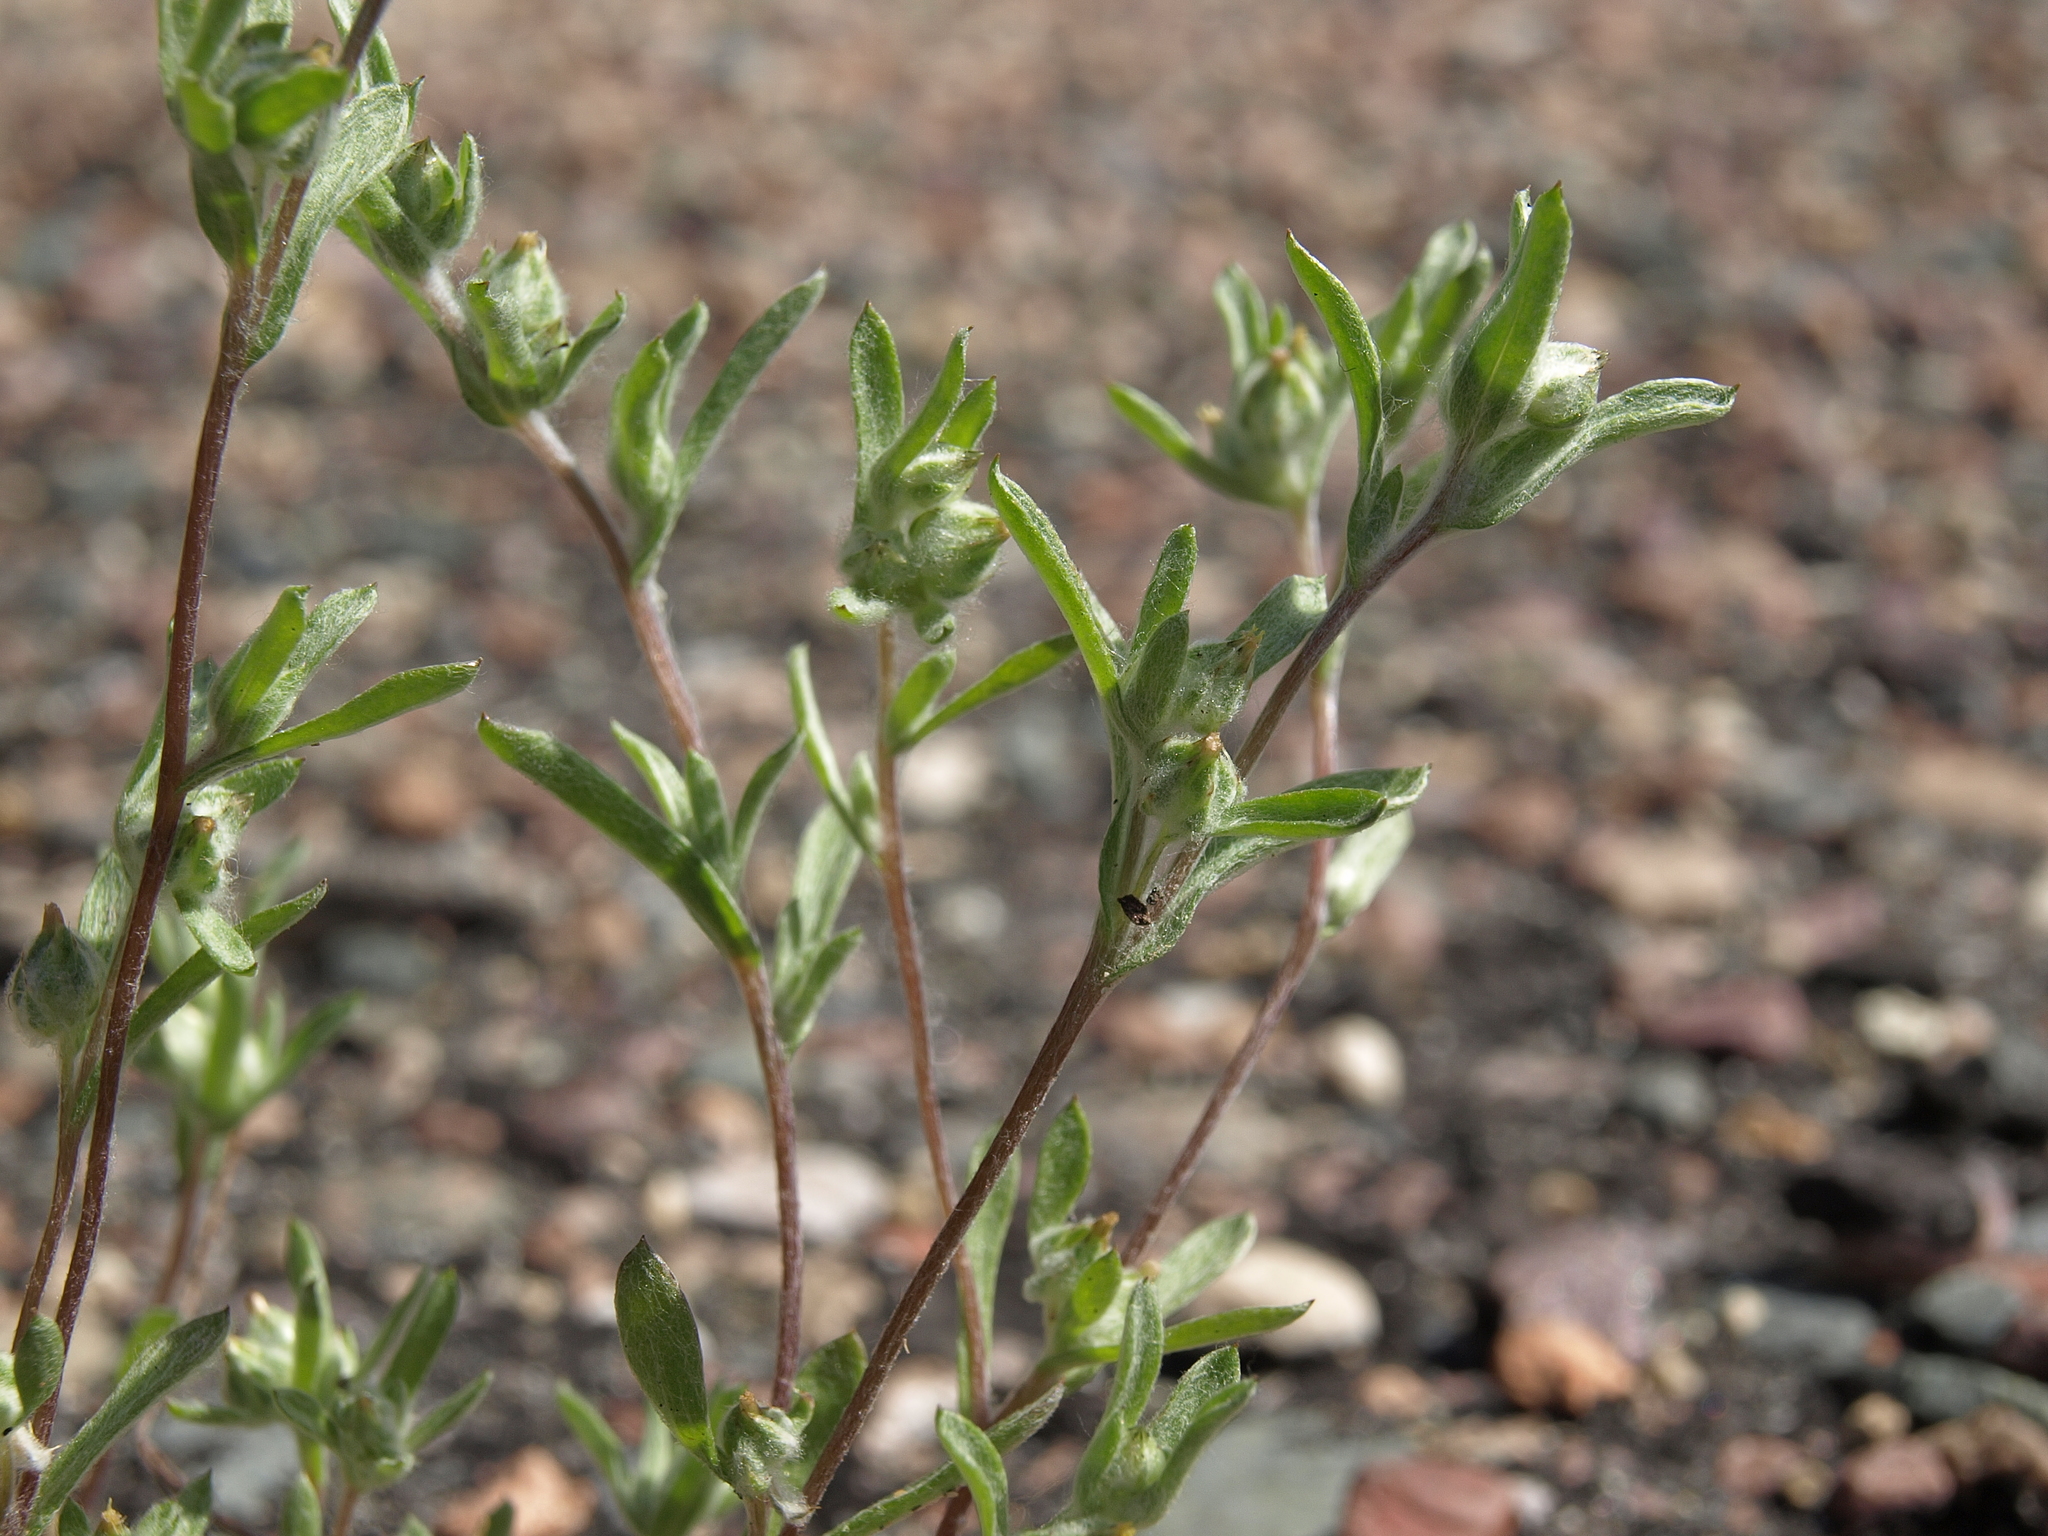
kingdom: Plantae
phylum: Tracheophyta
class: Magnoliopsida
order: Asterales
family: Asteraceae
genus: Logfia
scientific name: Logfia californica
